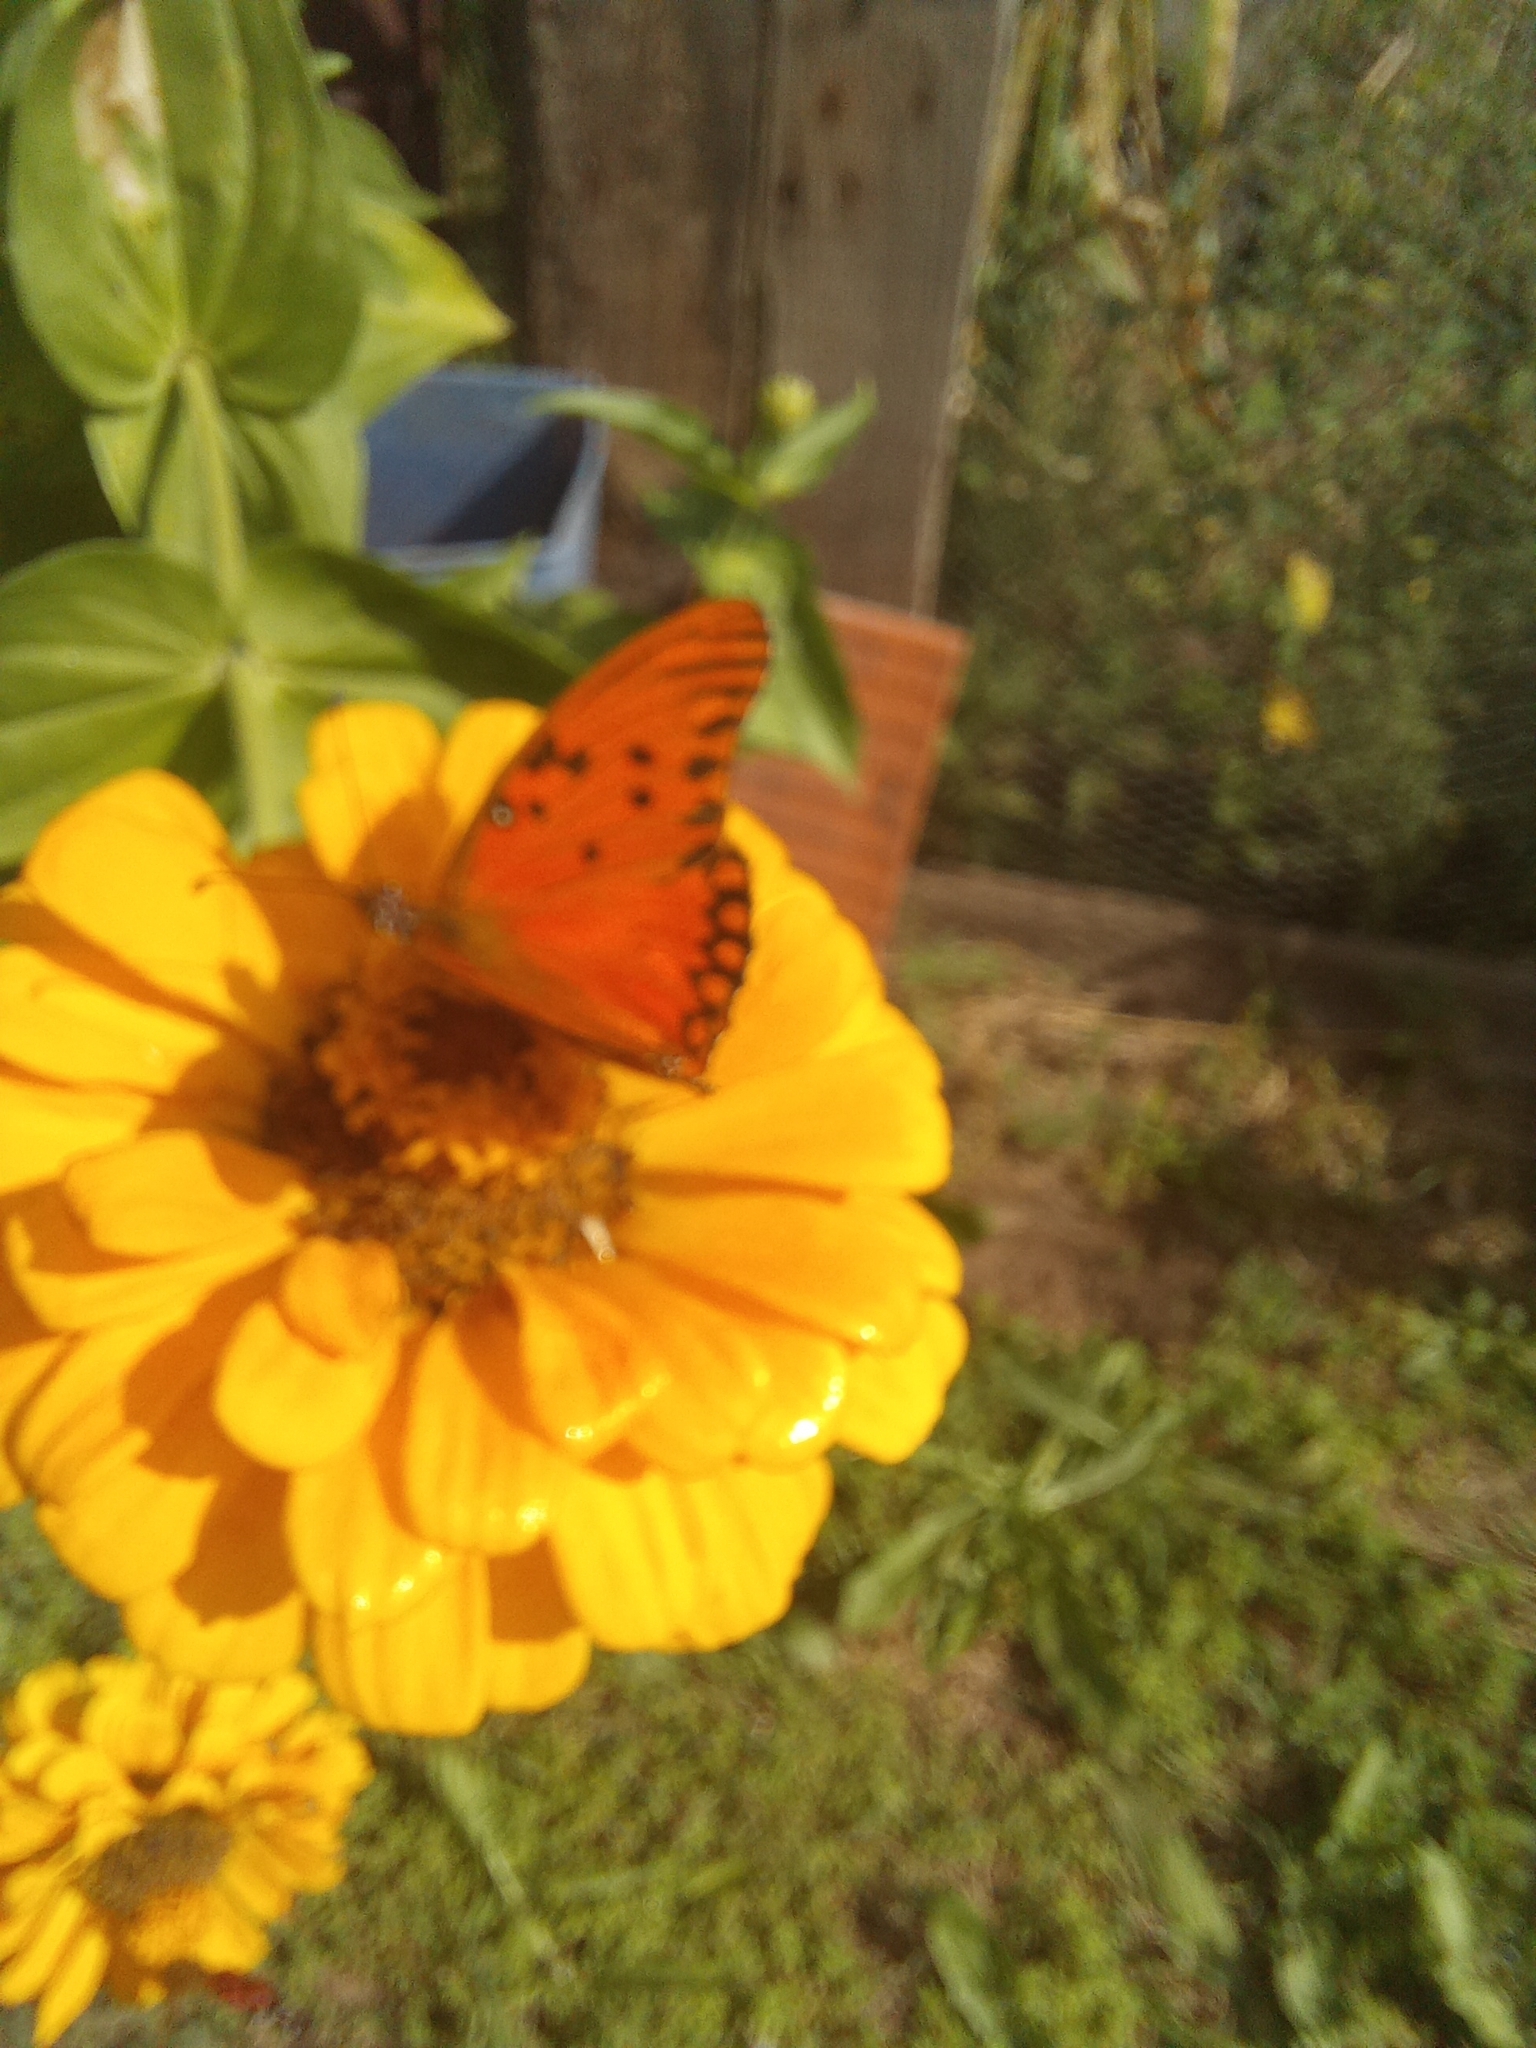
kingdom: Animalia
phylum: Arthropoda
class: Insecta
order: Lepidoptera
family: Nymphalidae
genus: Dione
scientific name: Dione vanillae
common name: Gulf fritillary
